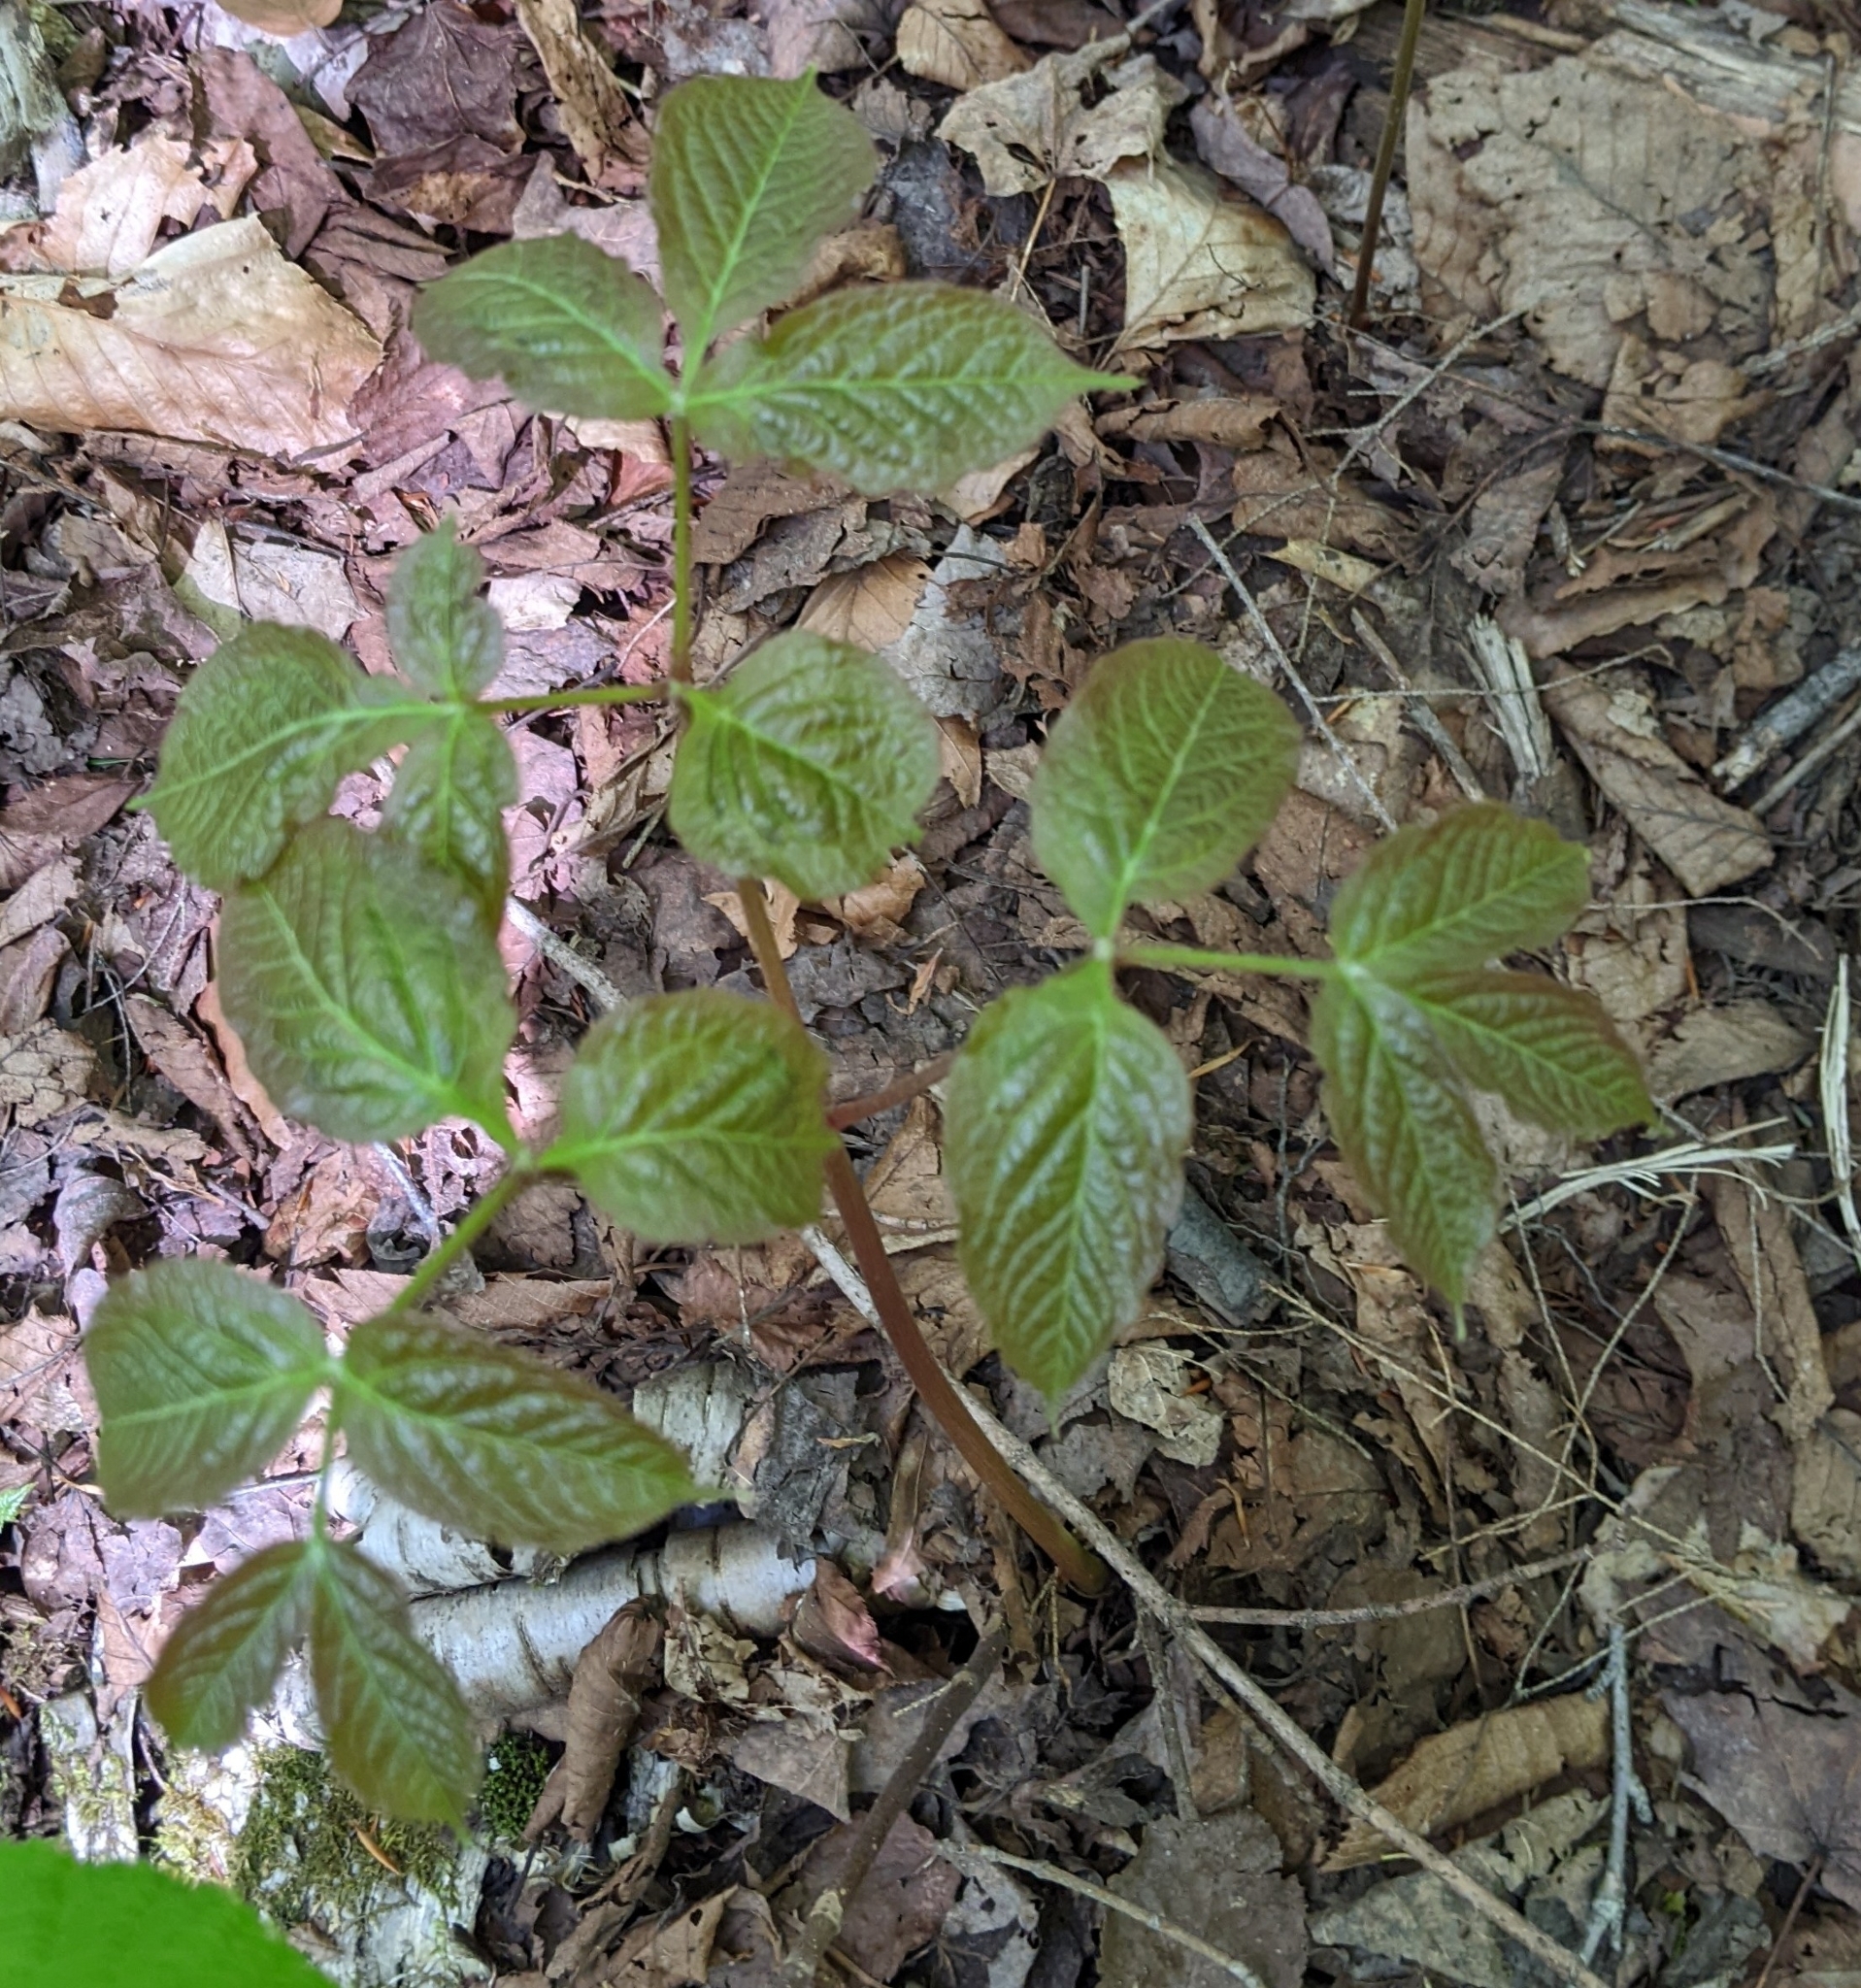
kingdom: Plantae
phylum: Tracheophyta
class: Magnoliopsida
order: Apiales
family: Araliaceae
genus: Aralia
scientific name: Aralia nudicaulis
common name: Wild sarsaparilla
